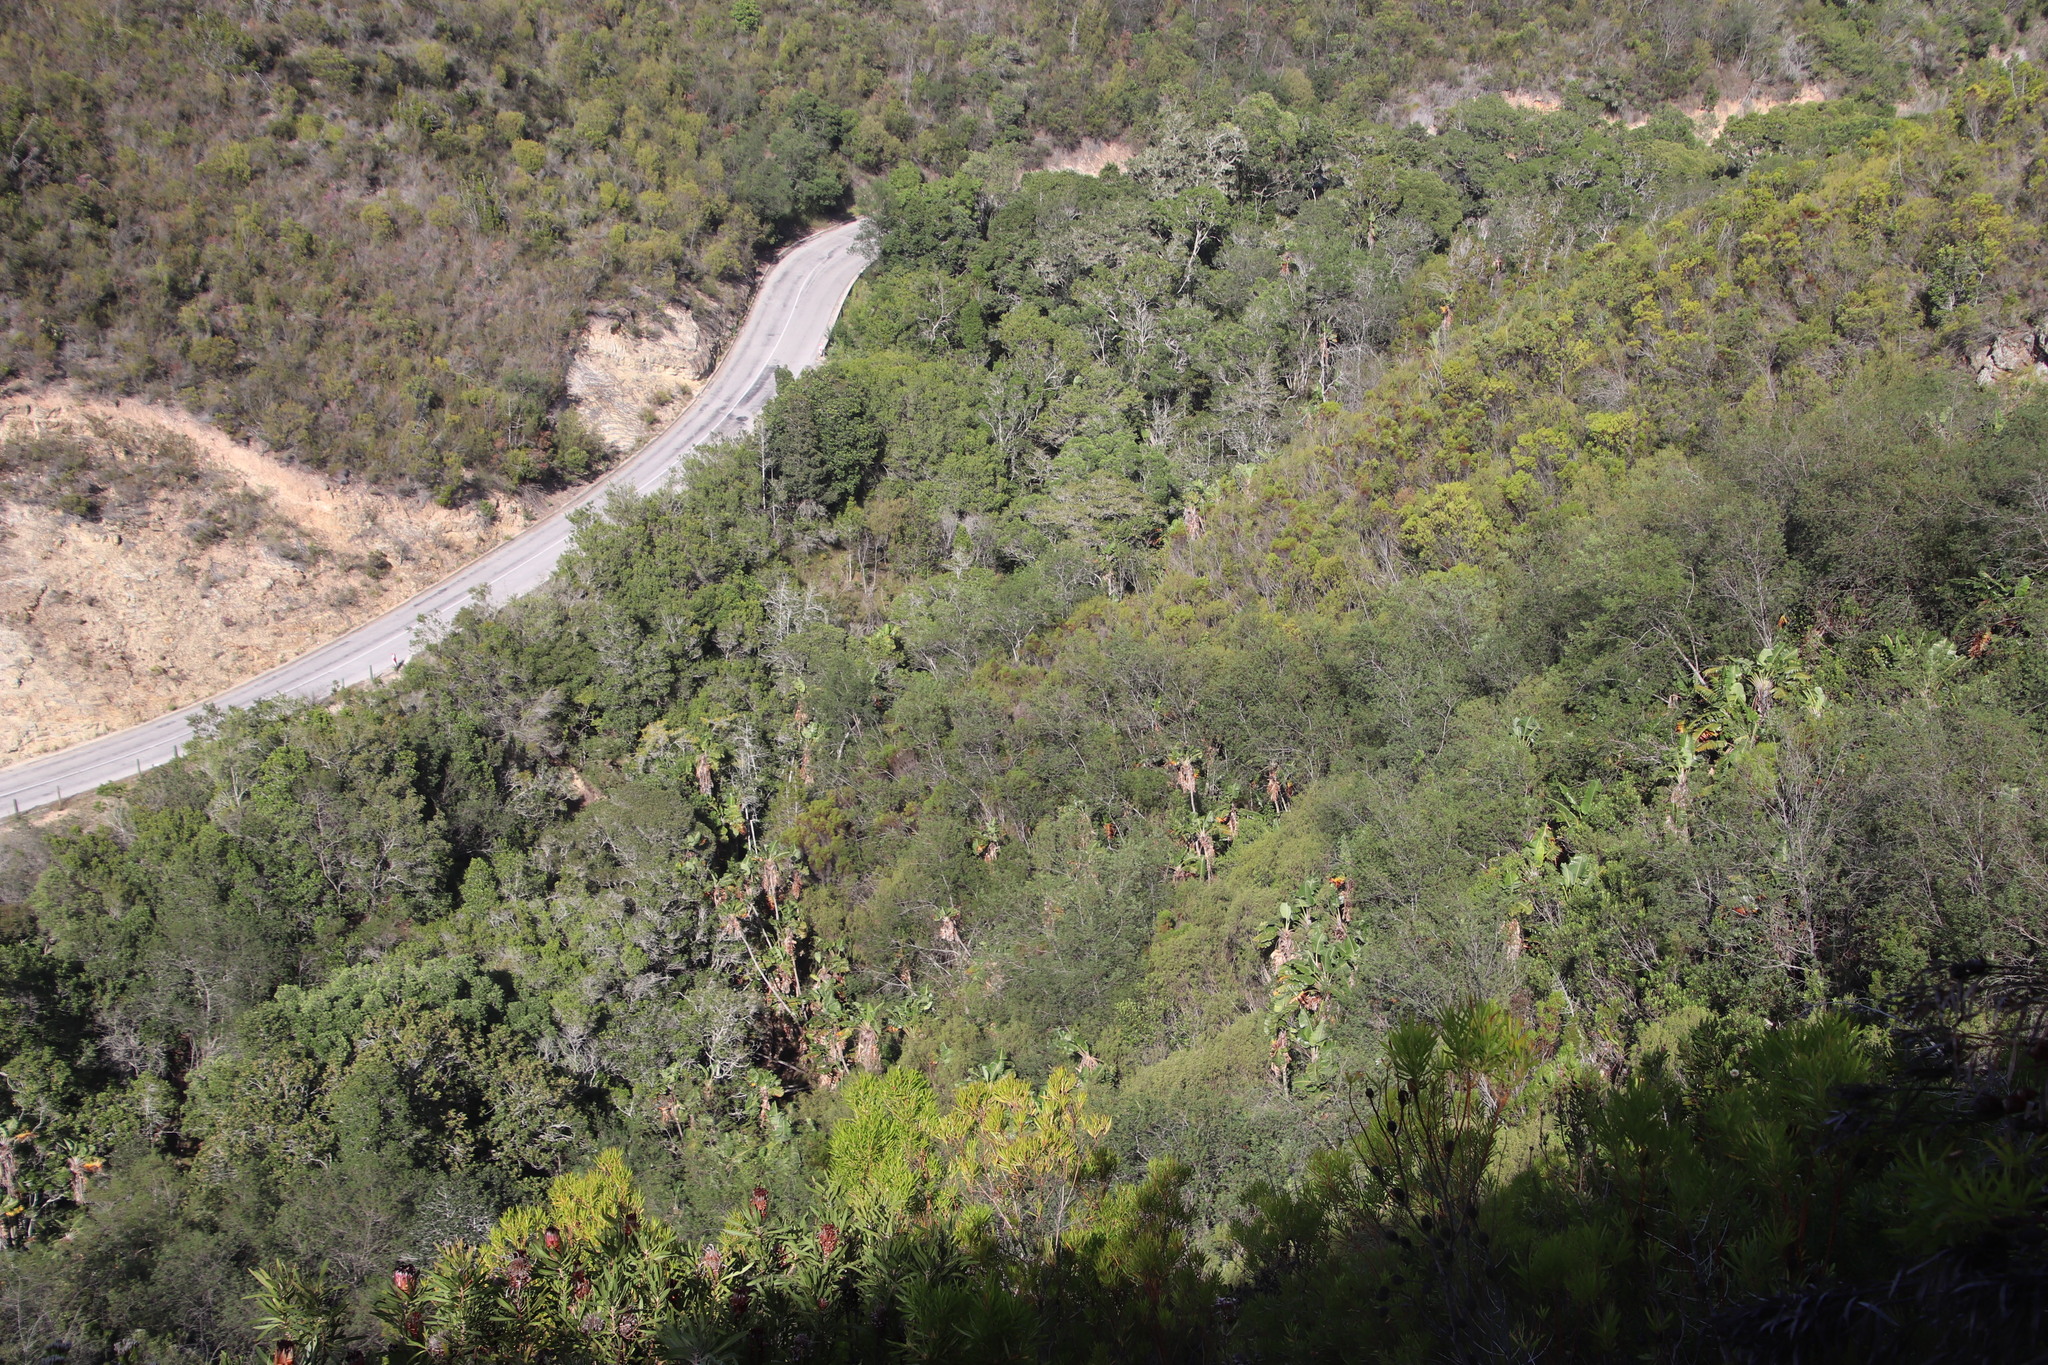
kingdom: Plantae
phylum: Tracheophyta
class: Liliopsida
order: Zingiberales
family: Strelitziaceae
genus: Strelitzia
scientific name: Strelitzia alba
